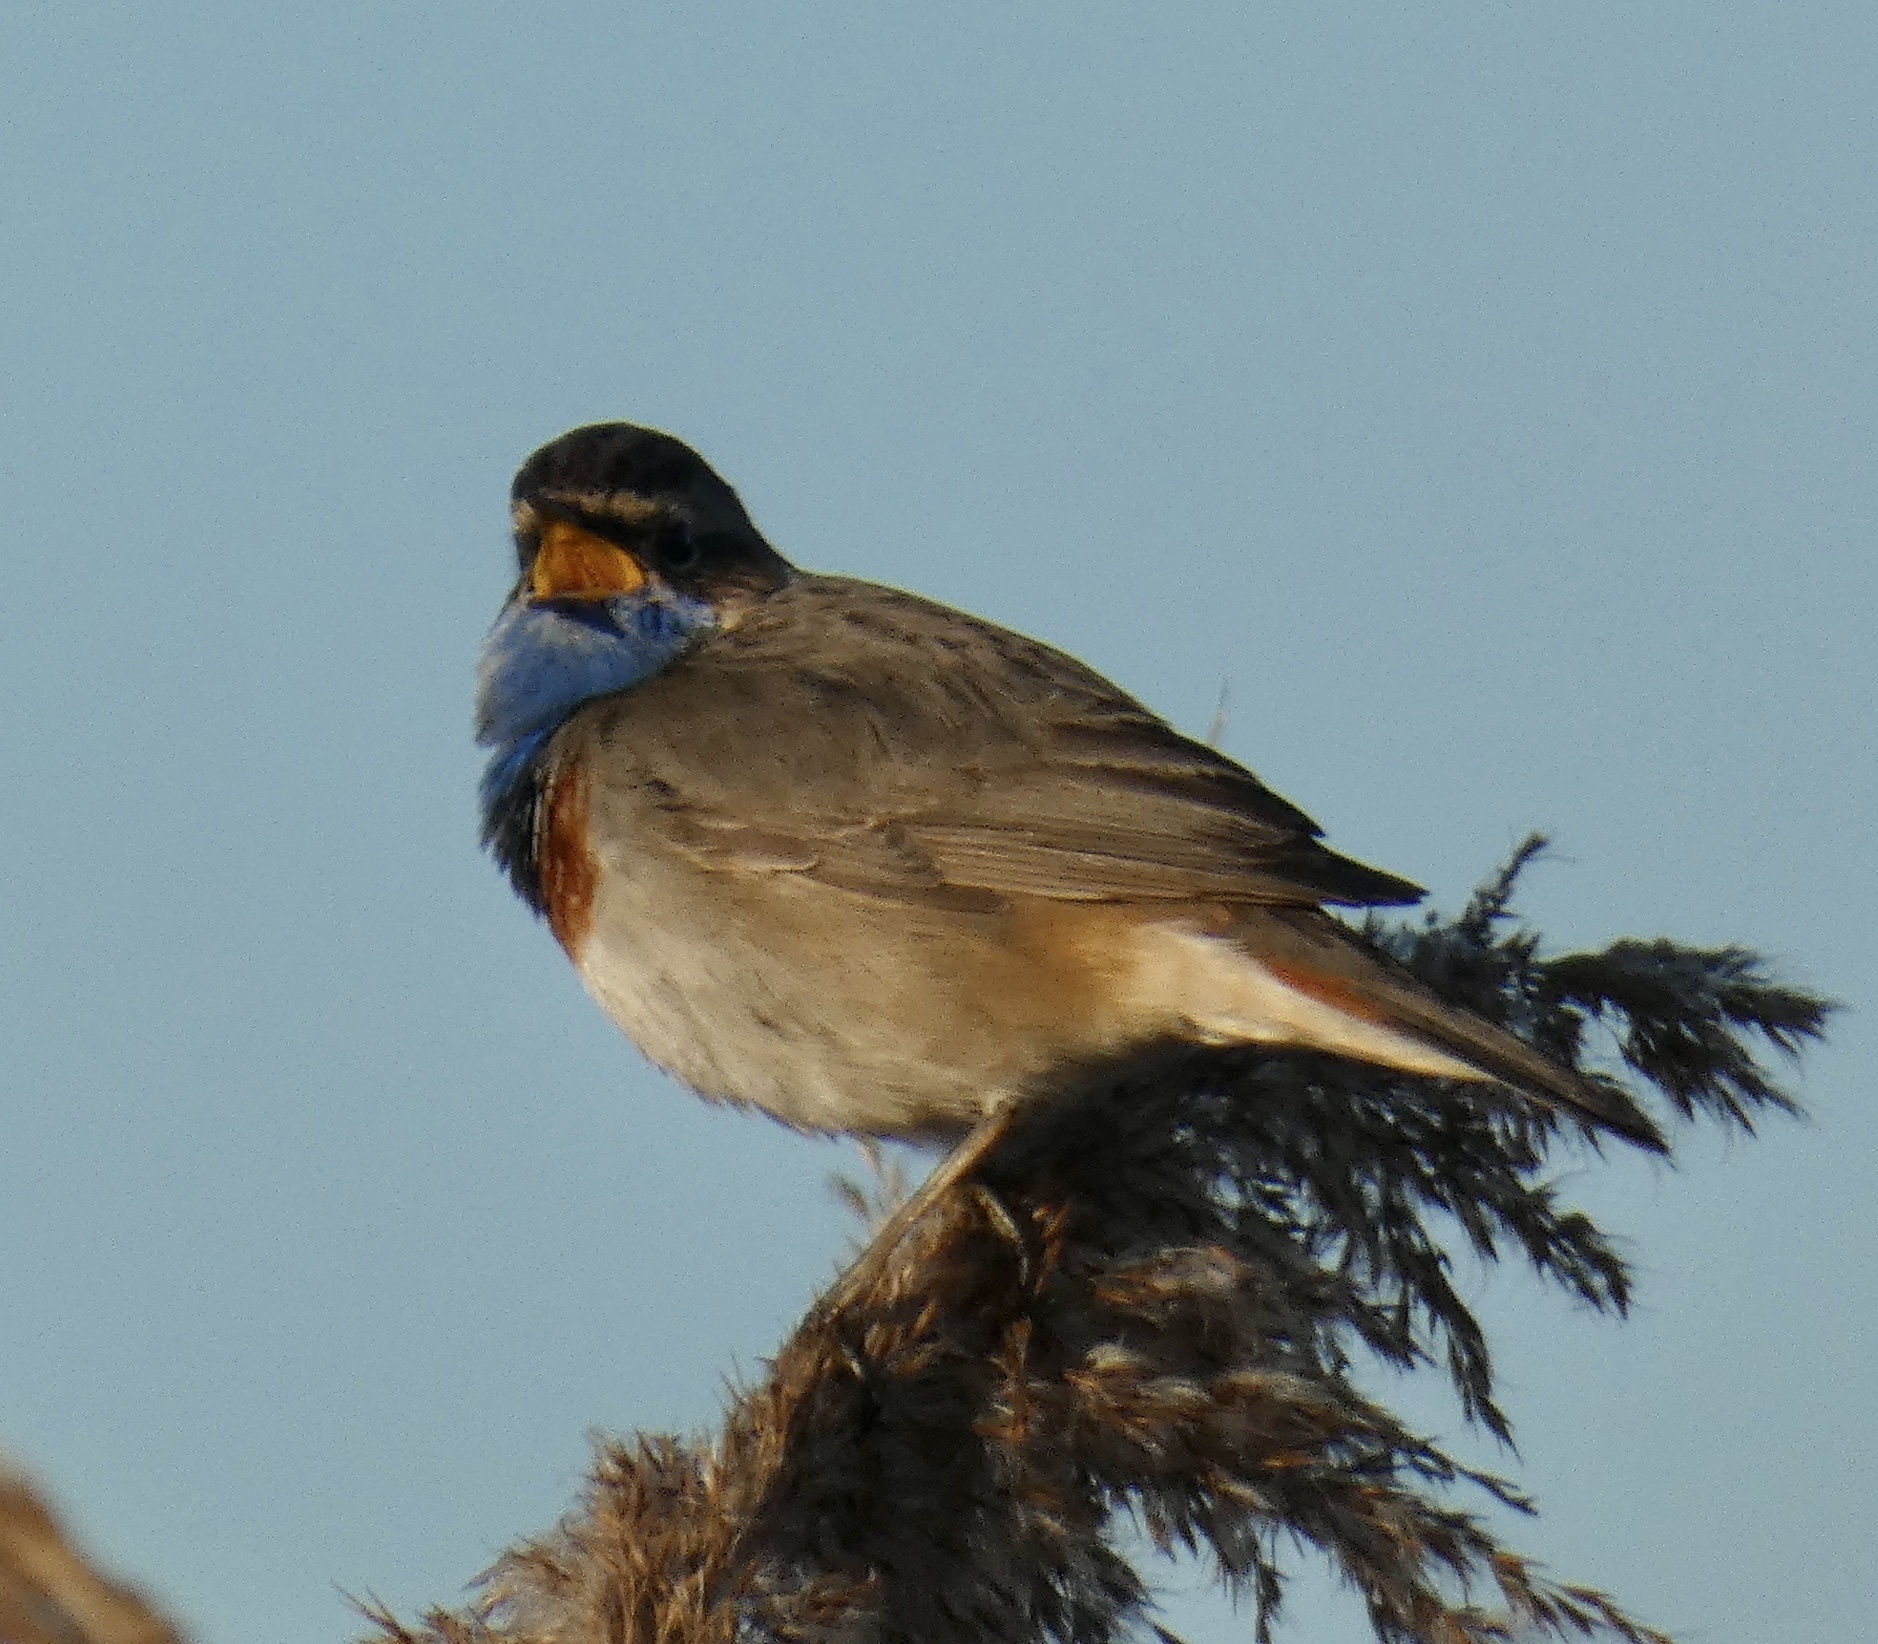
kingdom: Animalia
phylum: Chordata
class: Aves
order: Passeriformes
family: Muscicapidae
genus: Luscinia
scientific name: Luscinia svecica
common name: Bluethroat
